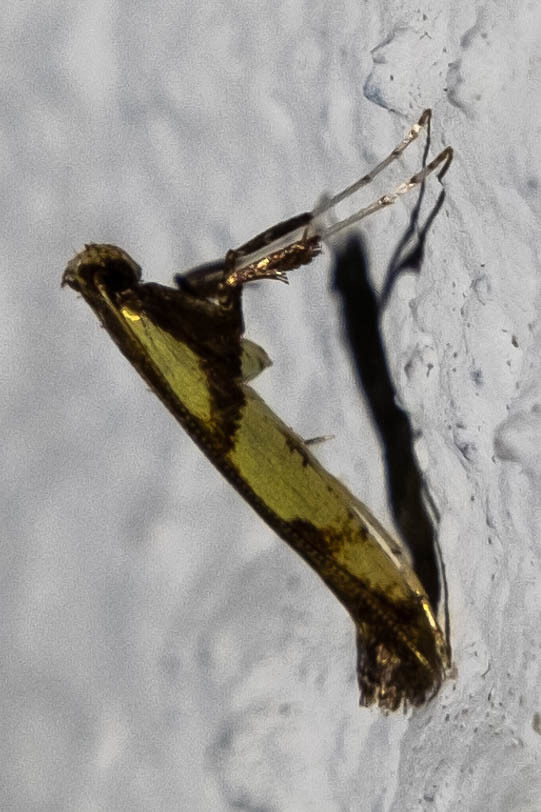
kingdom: Animalia
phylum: Arthropoda
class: Insecta
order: Lepidoptera
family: Gracillariidae
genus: Caloptilia
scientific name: Caloptilia blandella
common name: Walnut caloptilia moth
